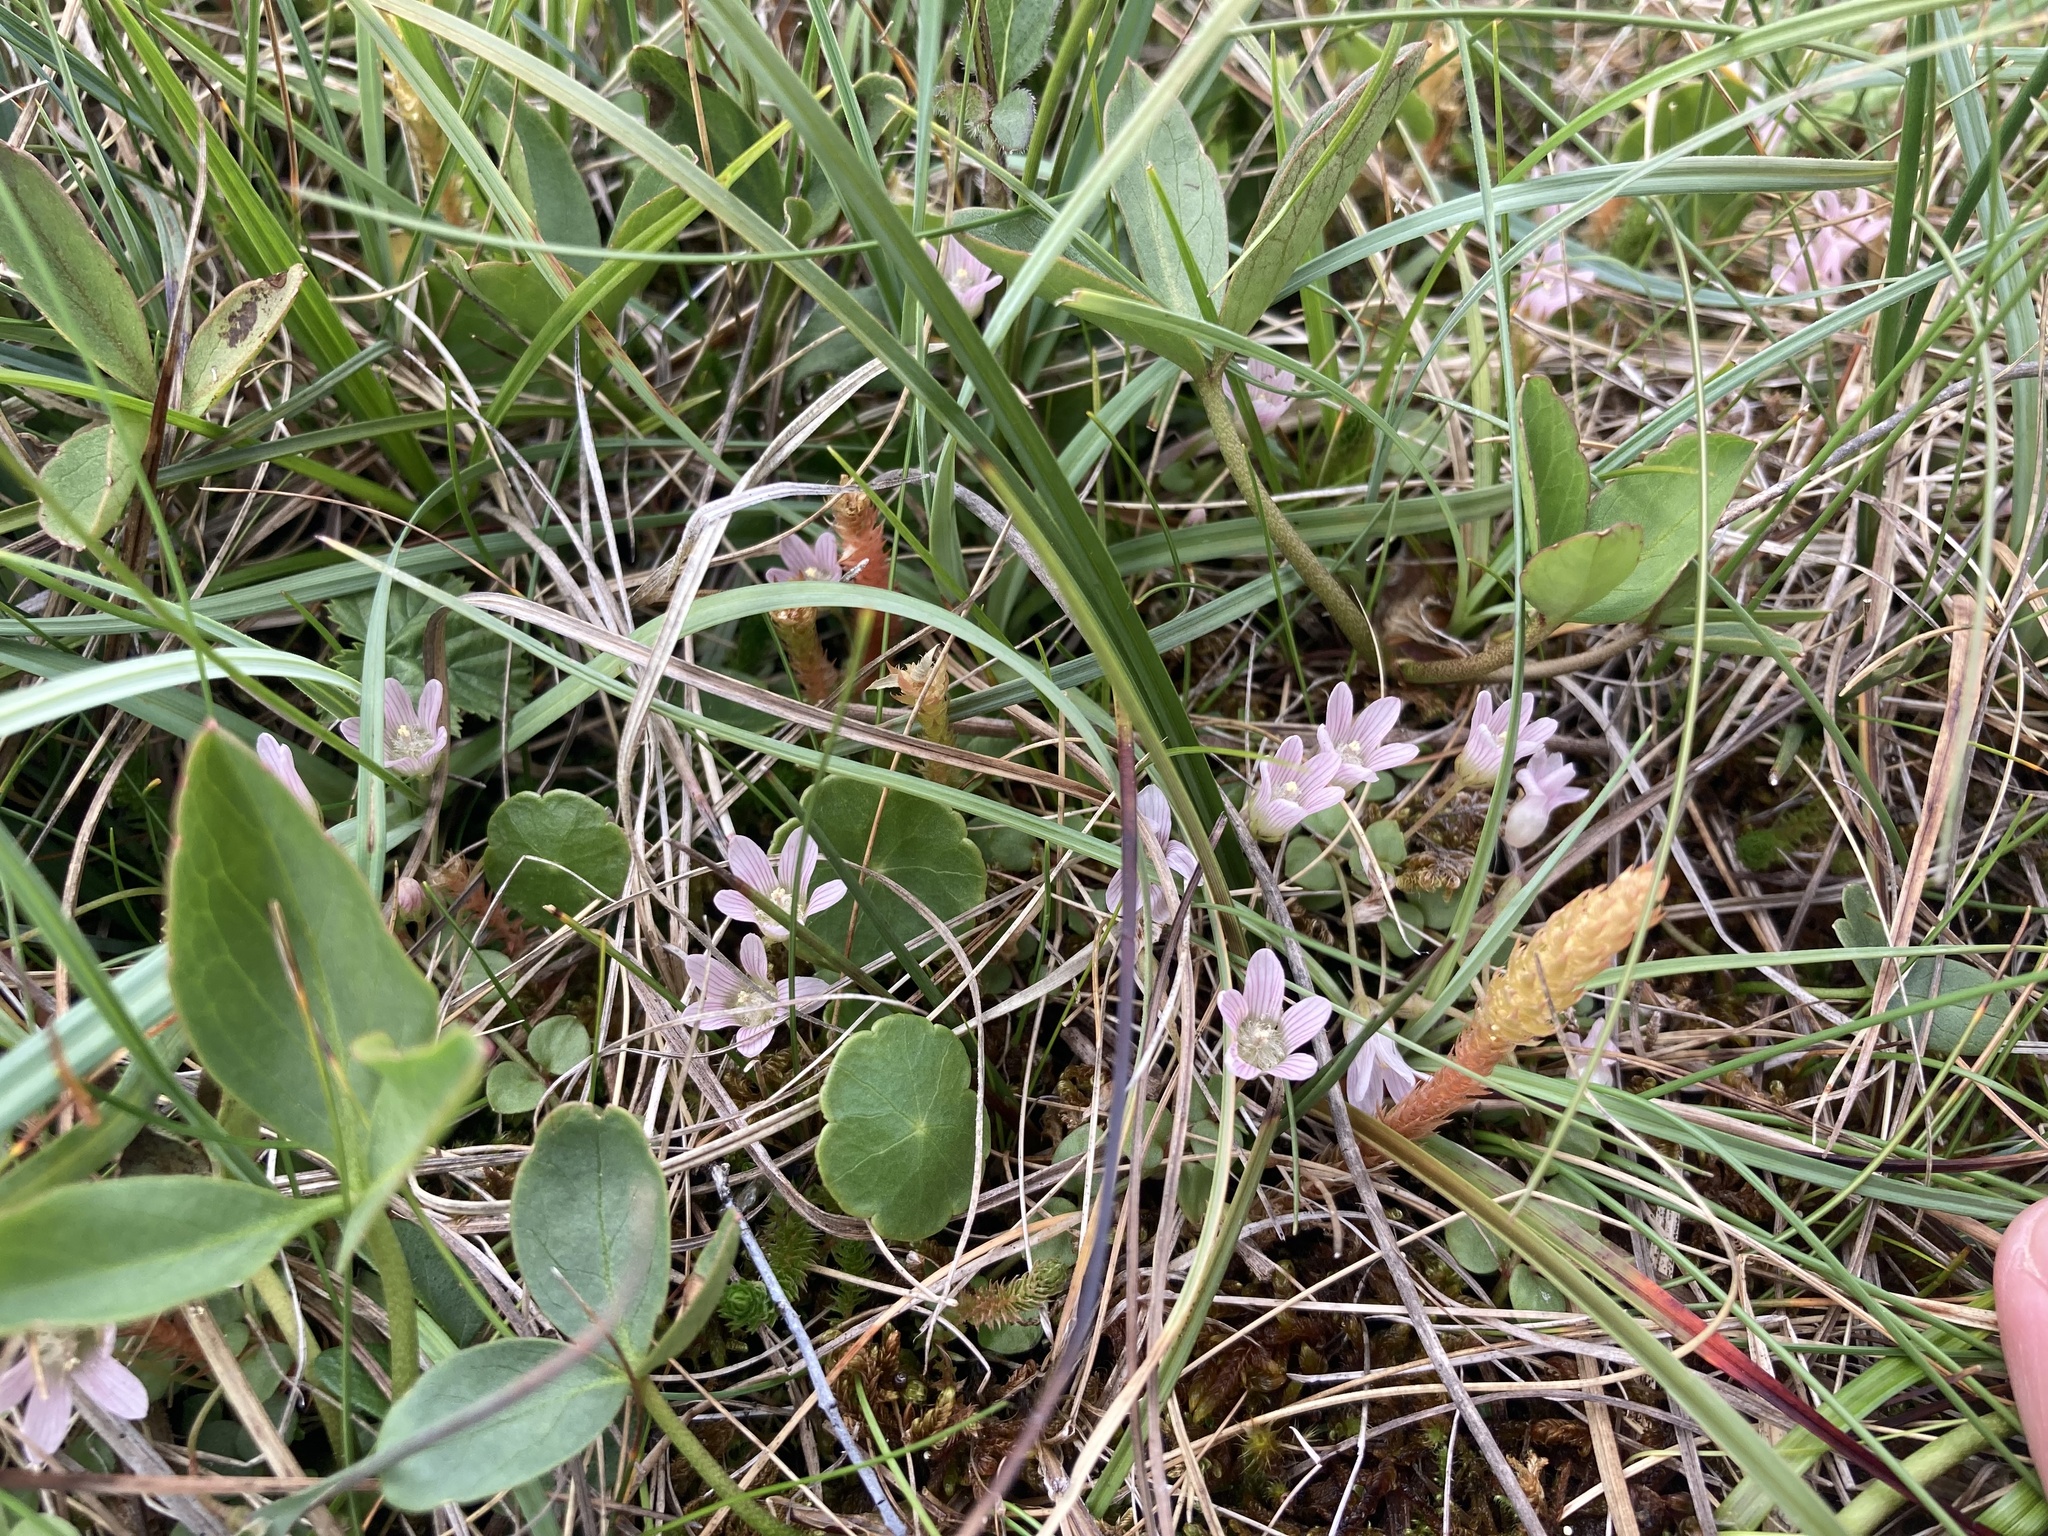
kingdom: Plantae
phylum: Tracheophyta
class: Magnoliopsida
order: Ericales
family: Primulaceae
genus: Lysimachia
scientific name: Lysimachia tenella
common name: European bog pimpernel
